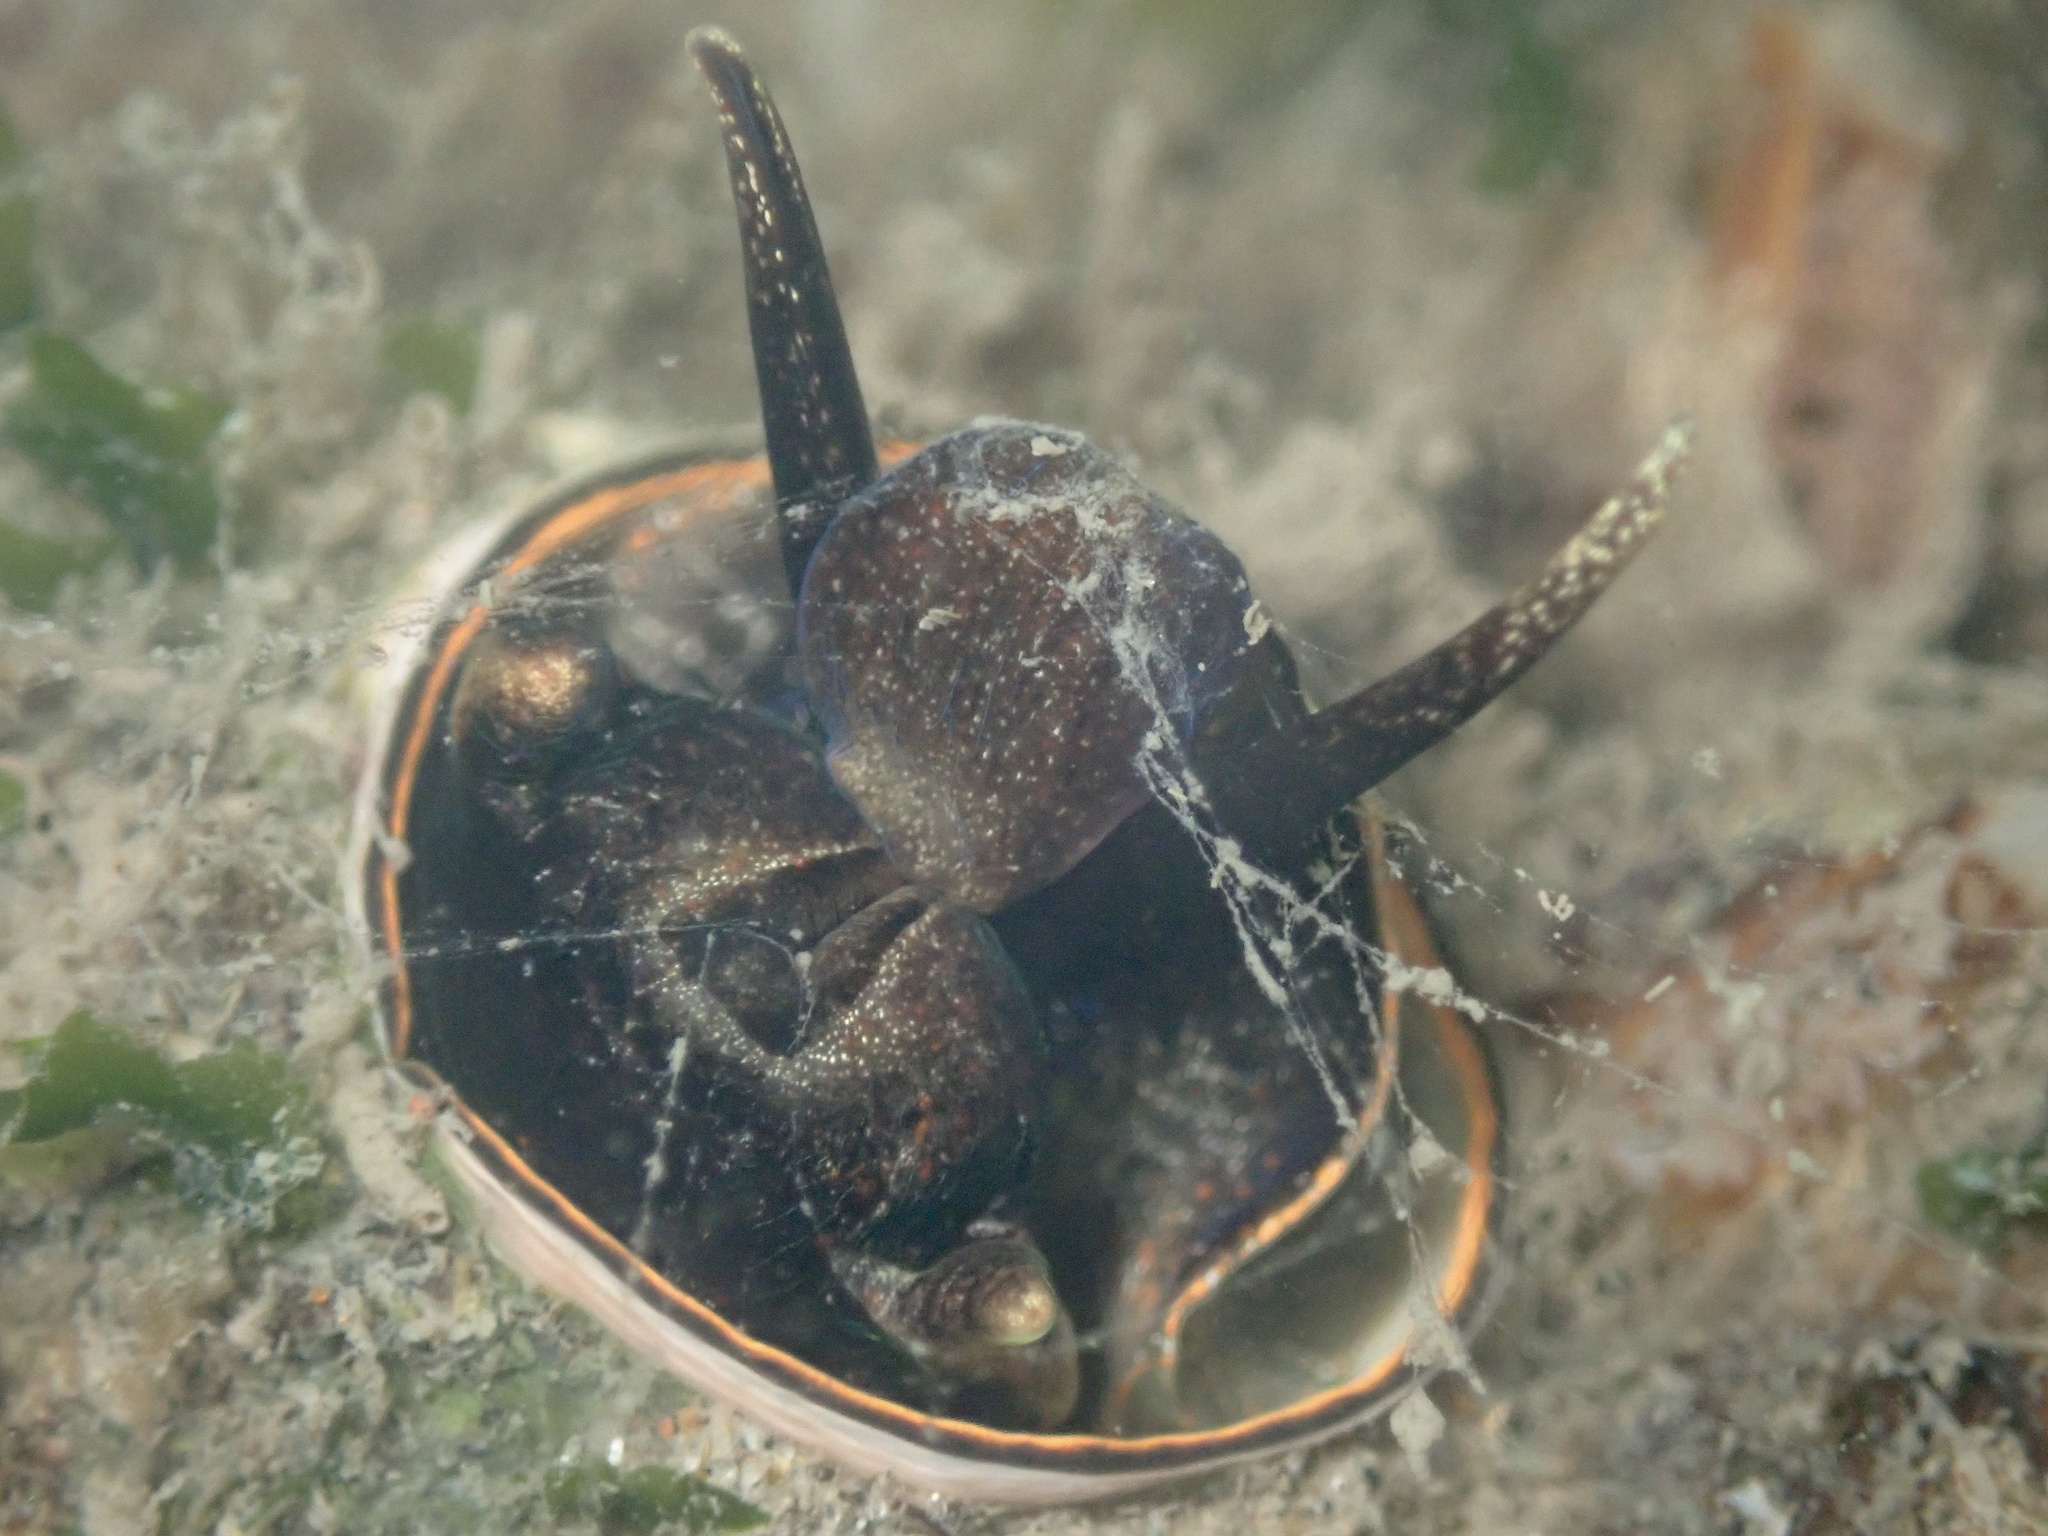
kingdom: Animalia
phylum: Mollusca
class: Gastropoda
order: Littorinimorpha
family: Vermetidae
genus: Thylacodes
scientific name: Thylacodes squamigerus
